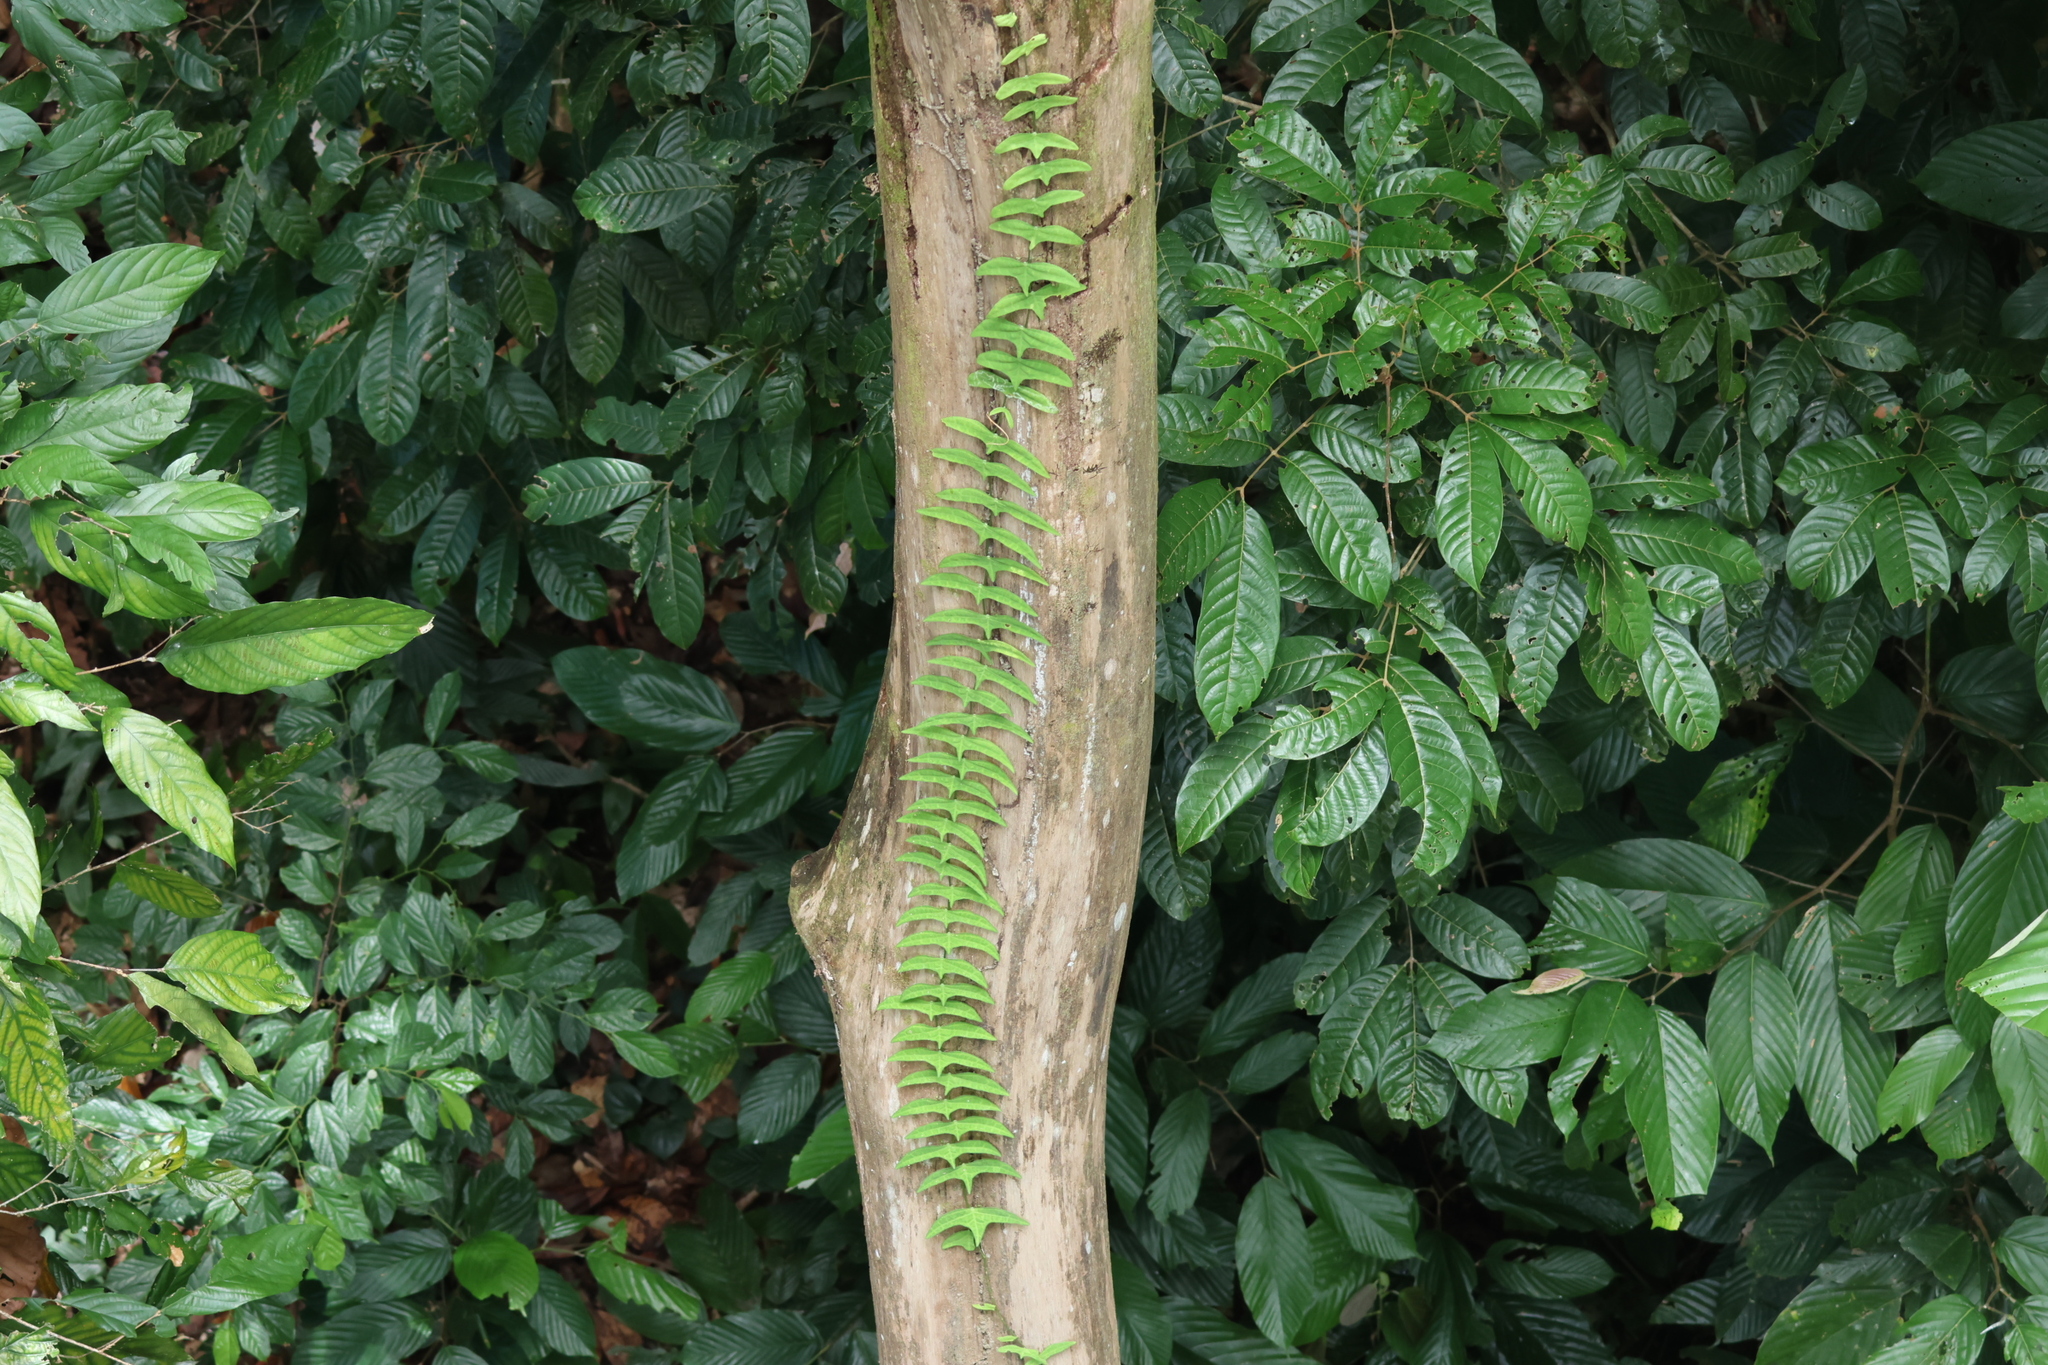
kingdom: Plantae
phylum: Tracheophyta
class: Magnoliopsida
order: Malpighiales
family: Passifloraceae
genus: Adenia
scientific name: Adenia cordifolia
